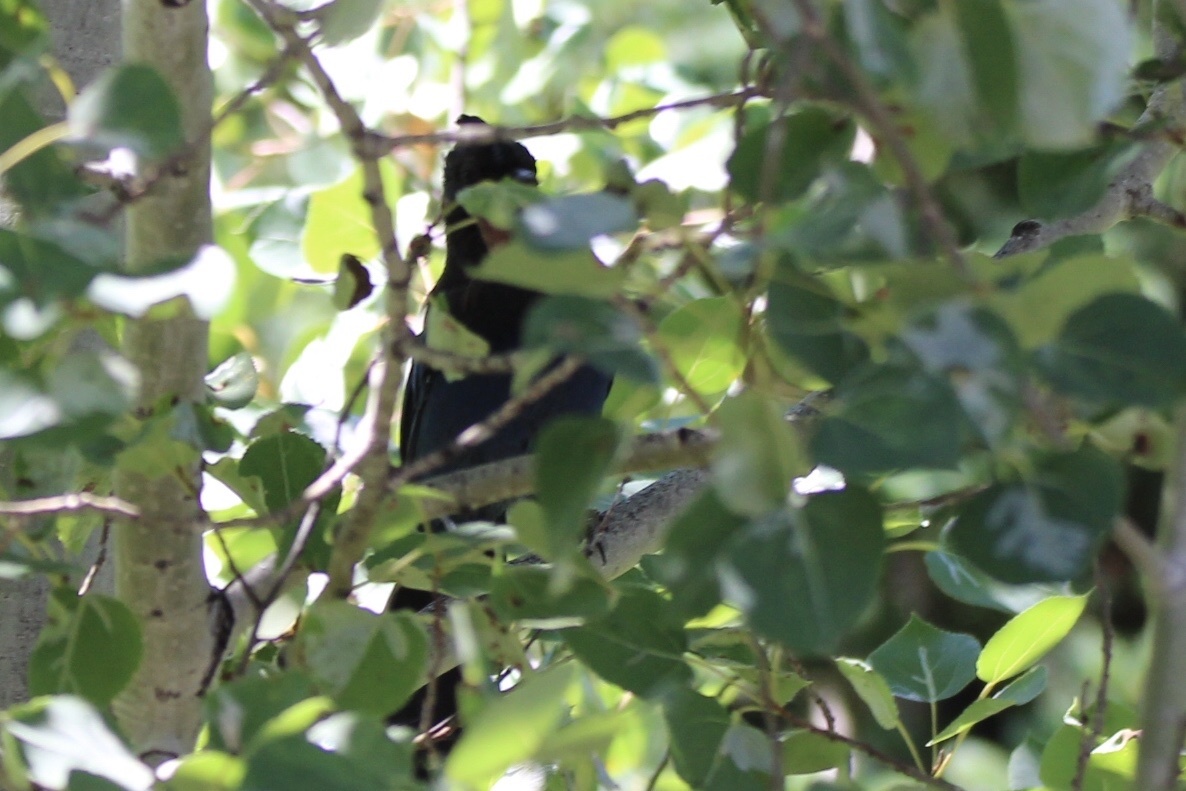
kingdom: Animalia
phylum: Chordata
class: Aves
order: Passeriformes
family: Corvidae
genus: Cyanocitta
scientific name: Cyanocitta stelleri
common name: Steller's jay
